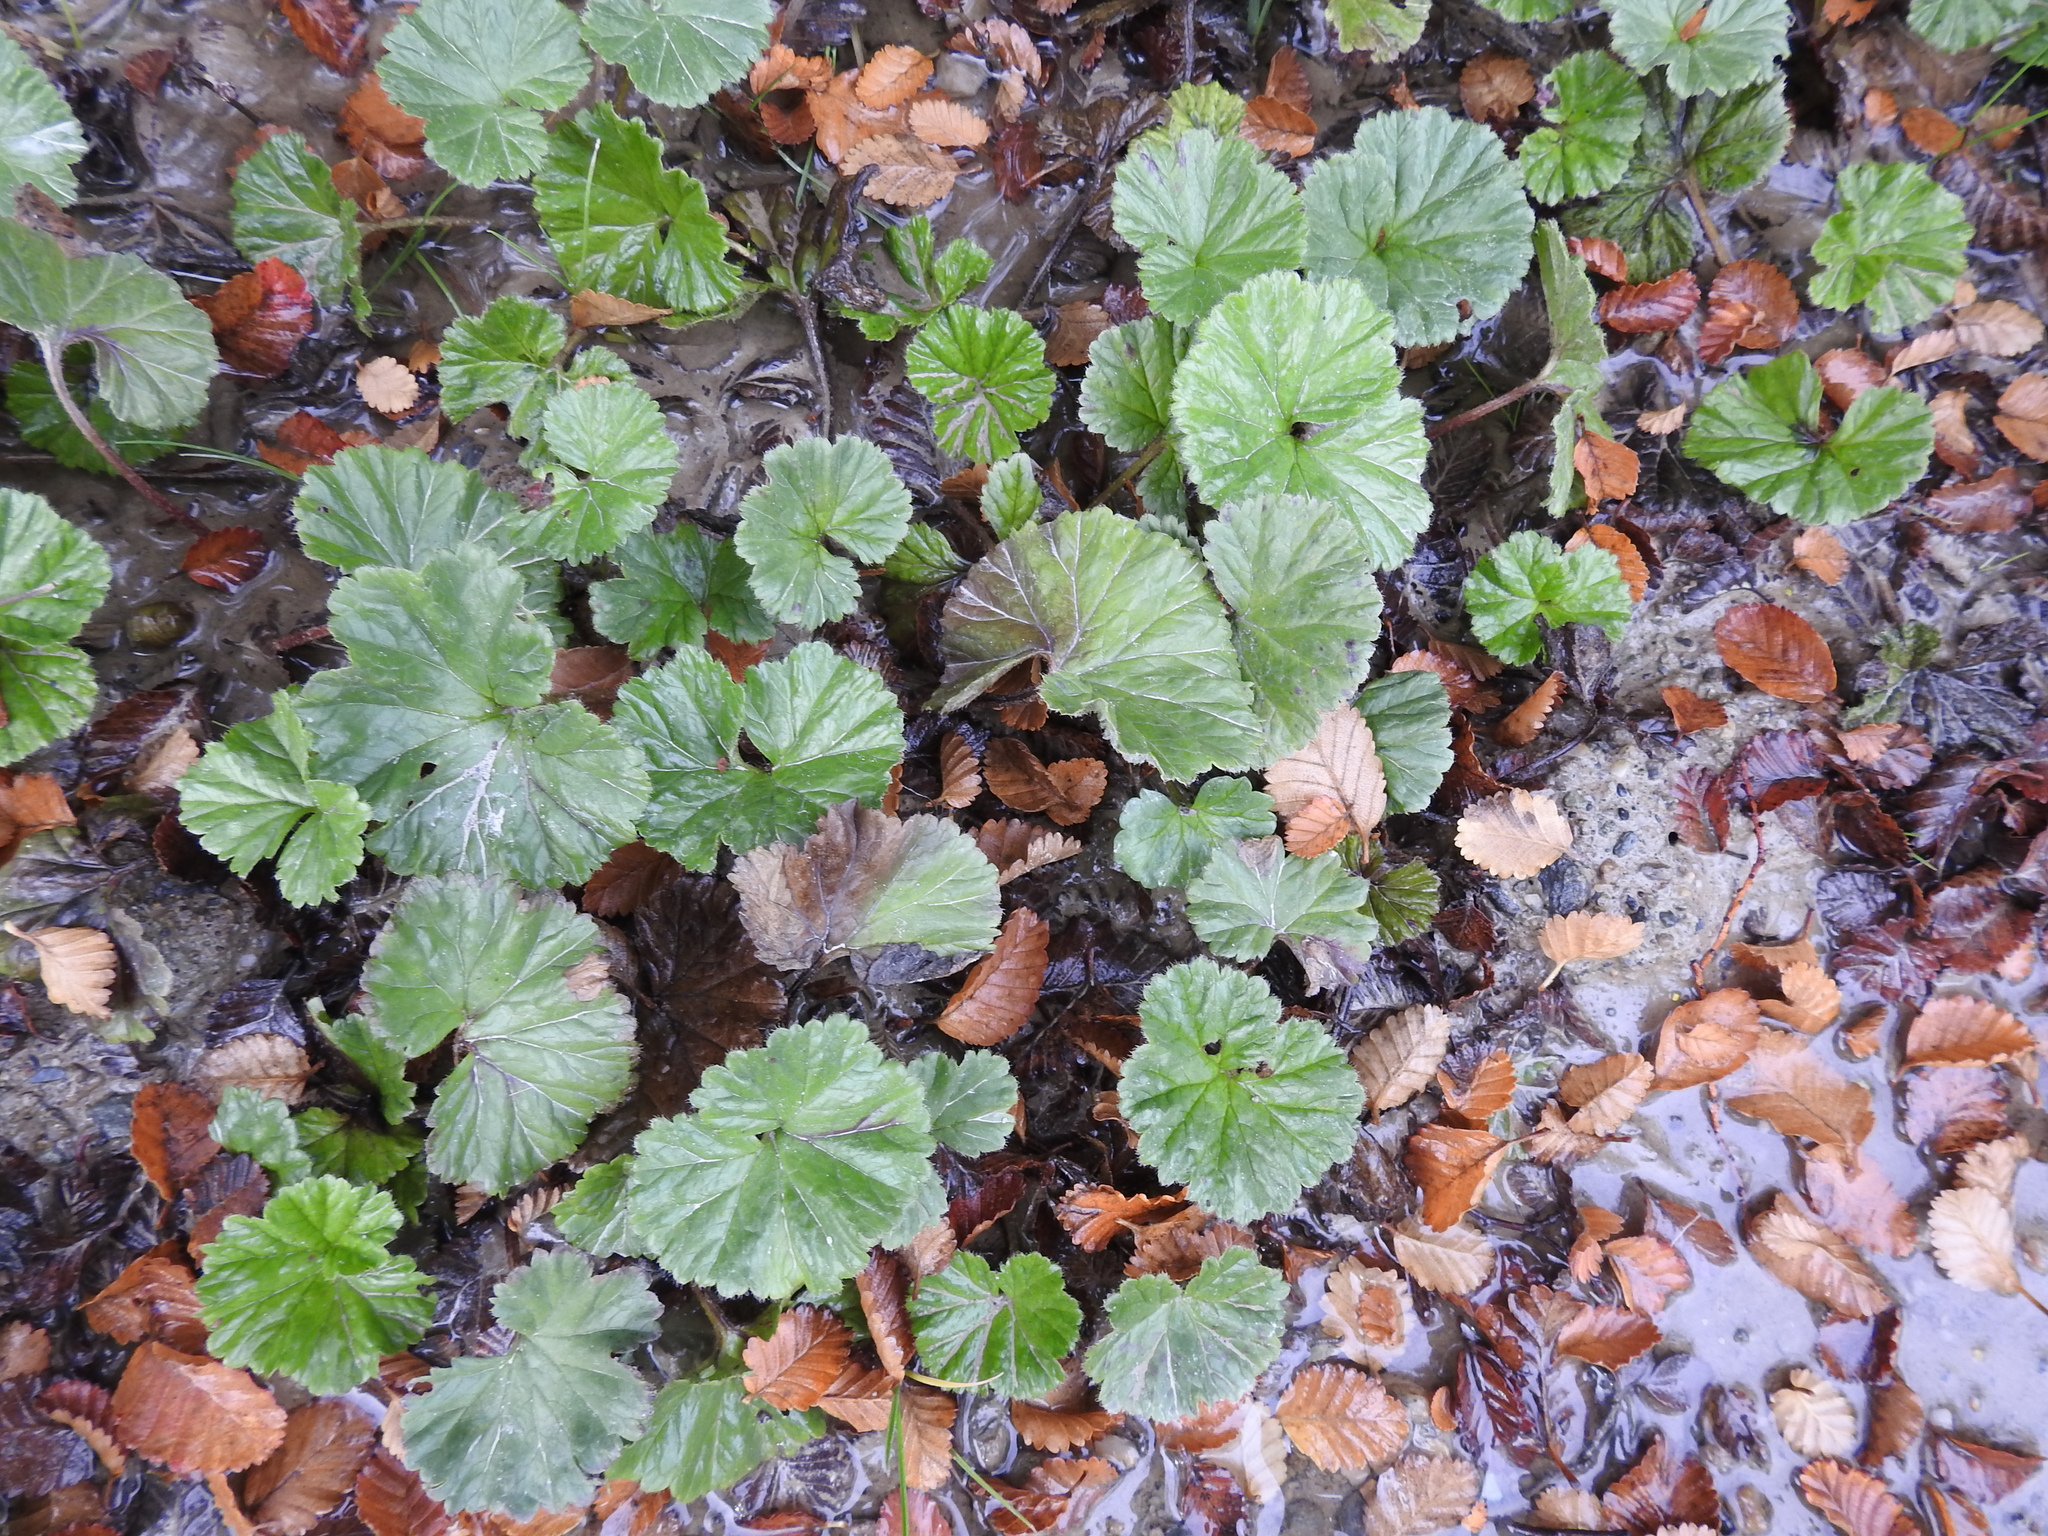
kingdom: Plantae
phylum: Tracheophyta
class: Magnoliopsida
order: Gunnerales
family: Gunneraceae
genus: Gunnera
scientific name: Gunnera magellanica
